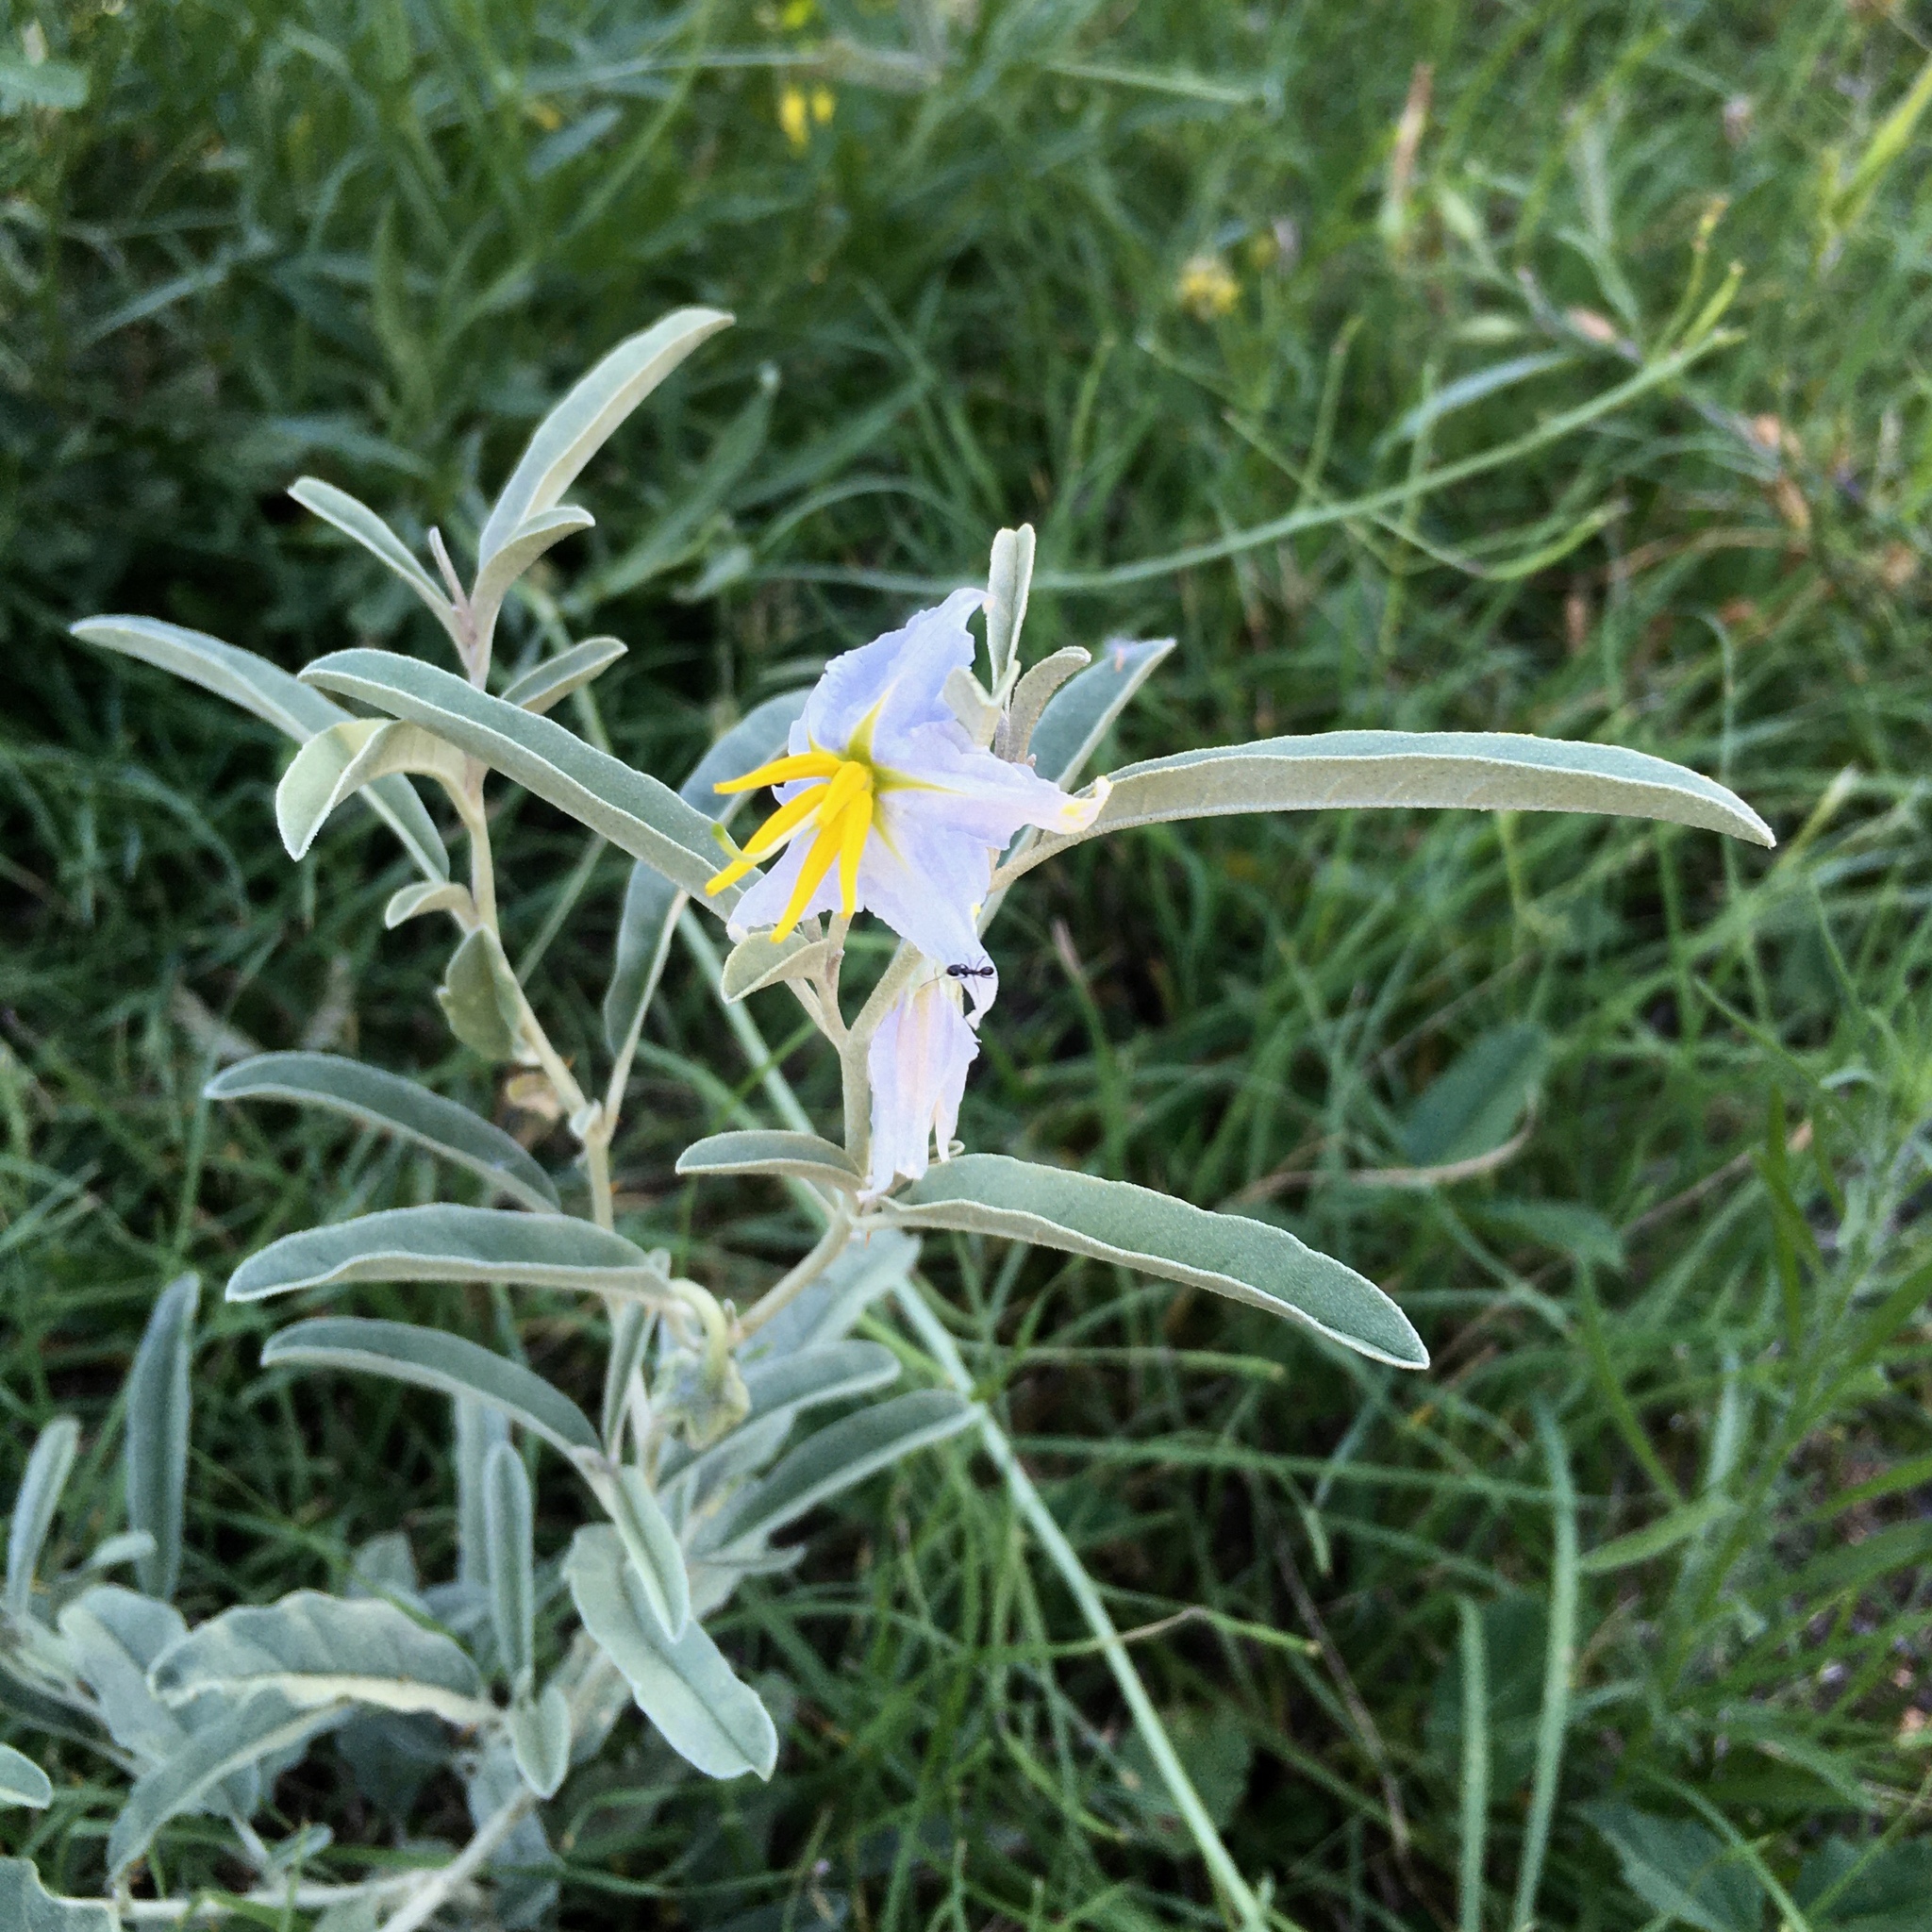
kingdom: Plantae
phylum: Tracheophyta
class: Magnoliopsida
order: Solanales
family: Solanaceae
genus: Solanum
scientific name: Solanum elaeagnifolium
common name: Silverleaf nightshade
